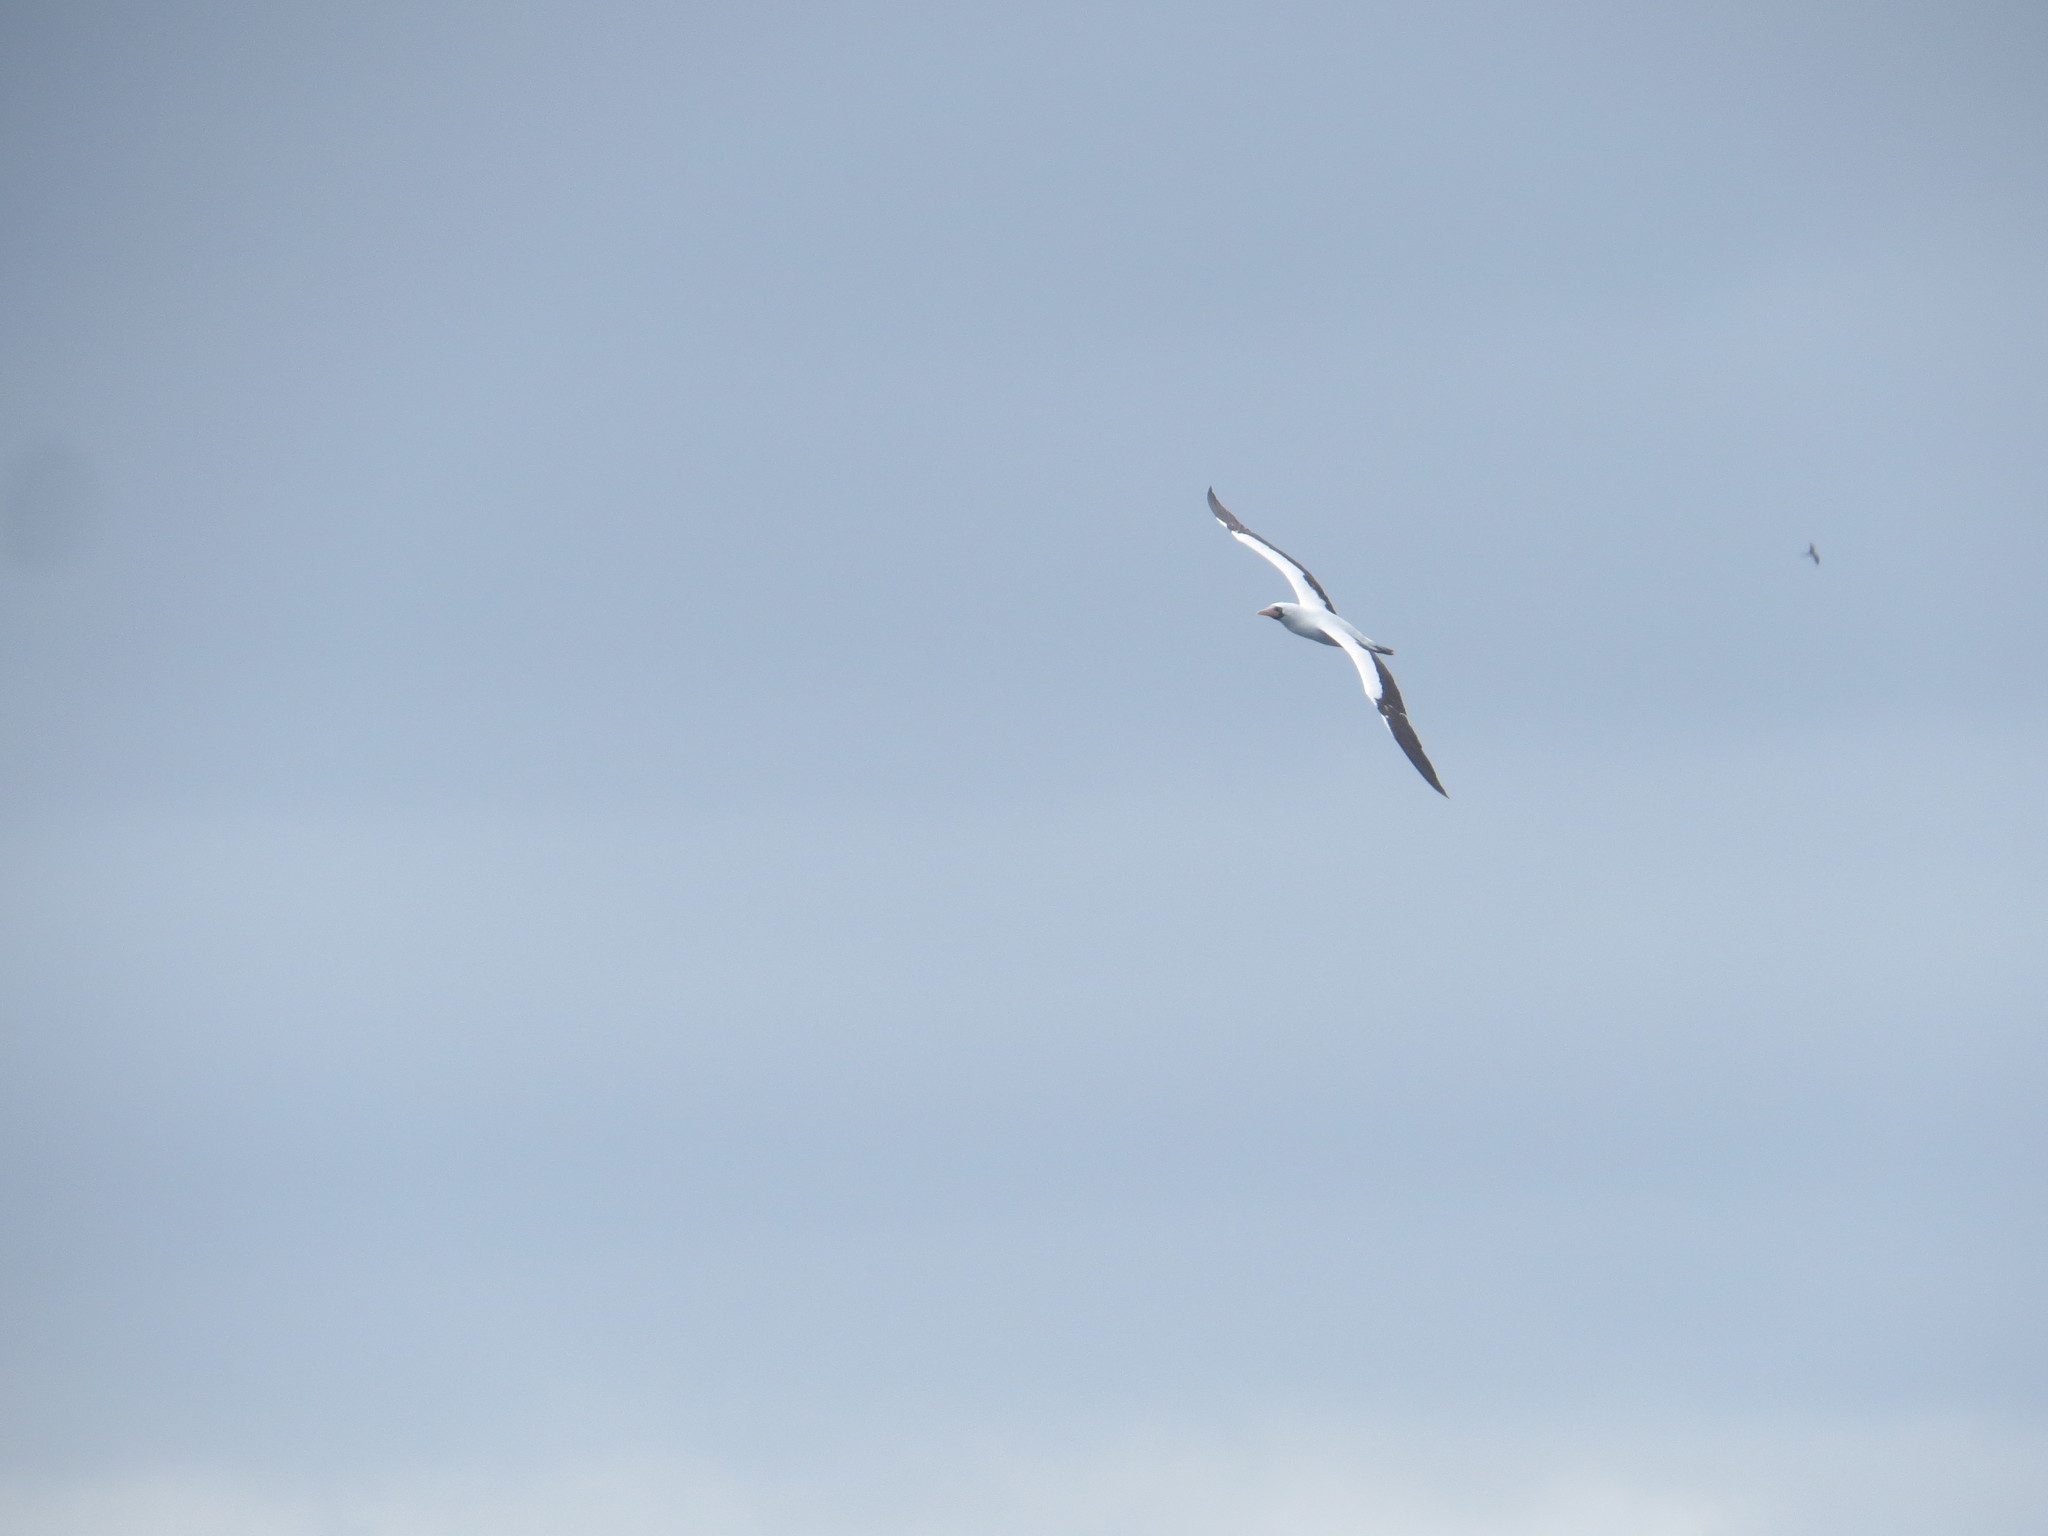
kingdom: Animalia
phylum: Chordata
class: Aves
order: Suliformes
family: Sulidae
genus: Sula
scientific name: Sula granti
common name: Nazca booby
